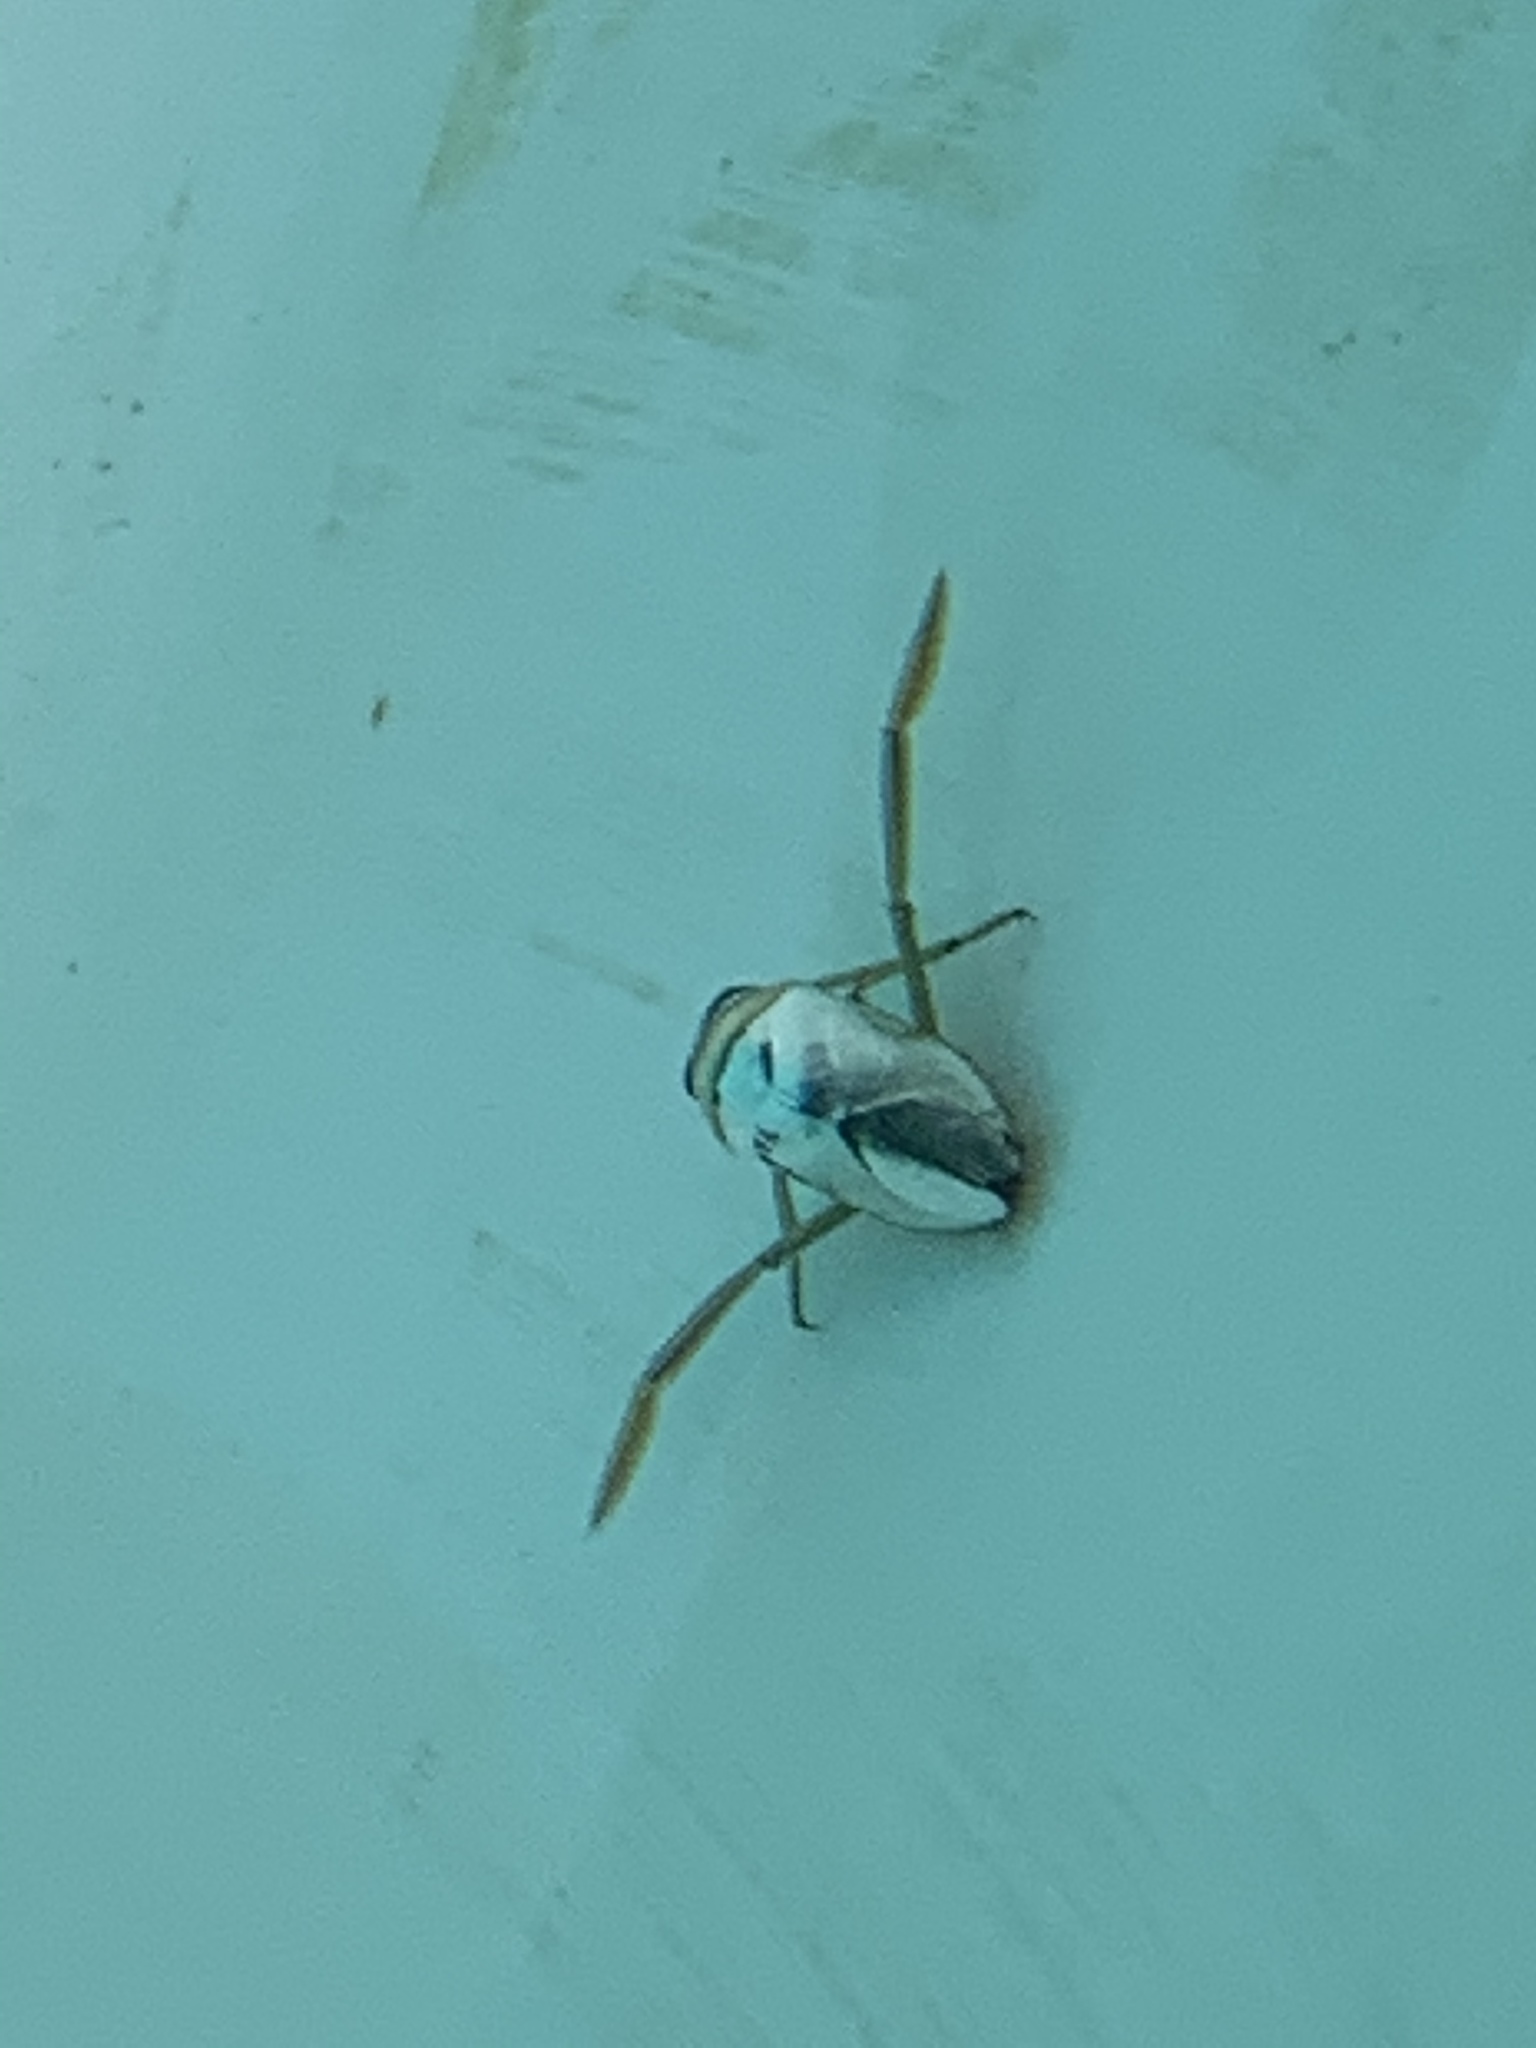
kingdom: Animalia
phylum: Arthropoda
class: Insecta
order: Hemiptera
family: Notonectidae
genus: Notonecta
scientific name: Notonecta
